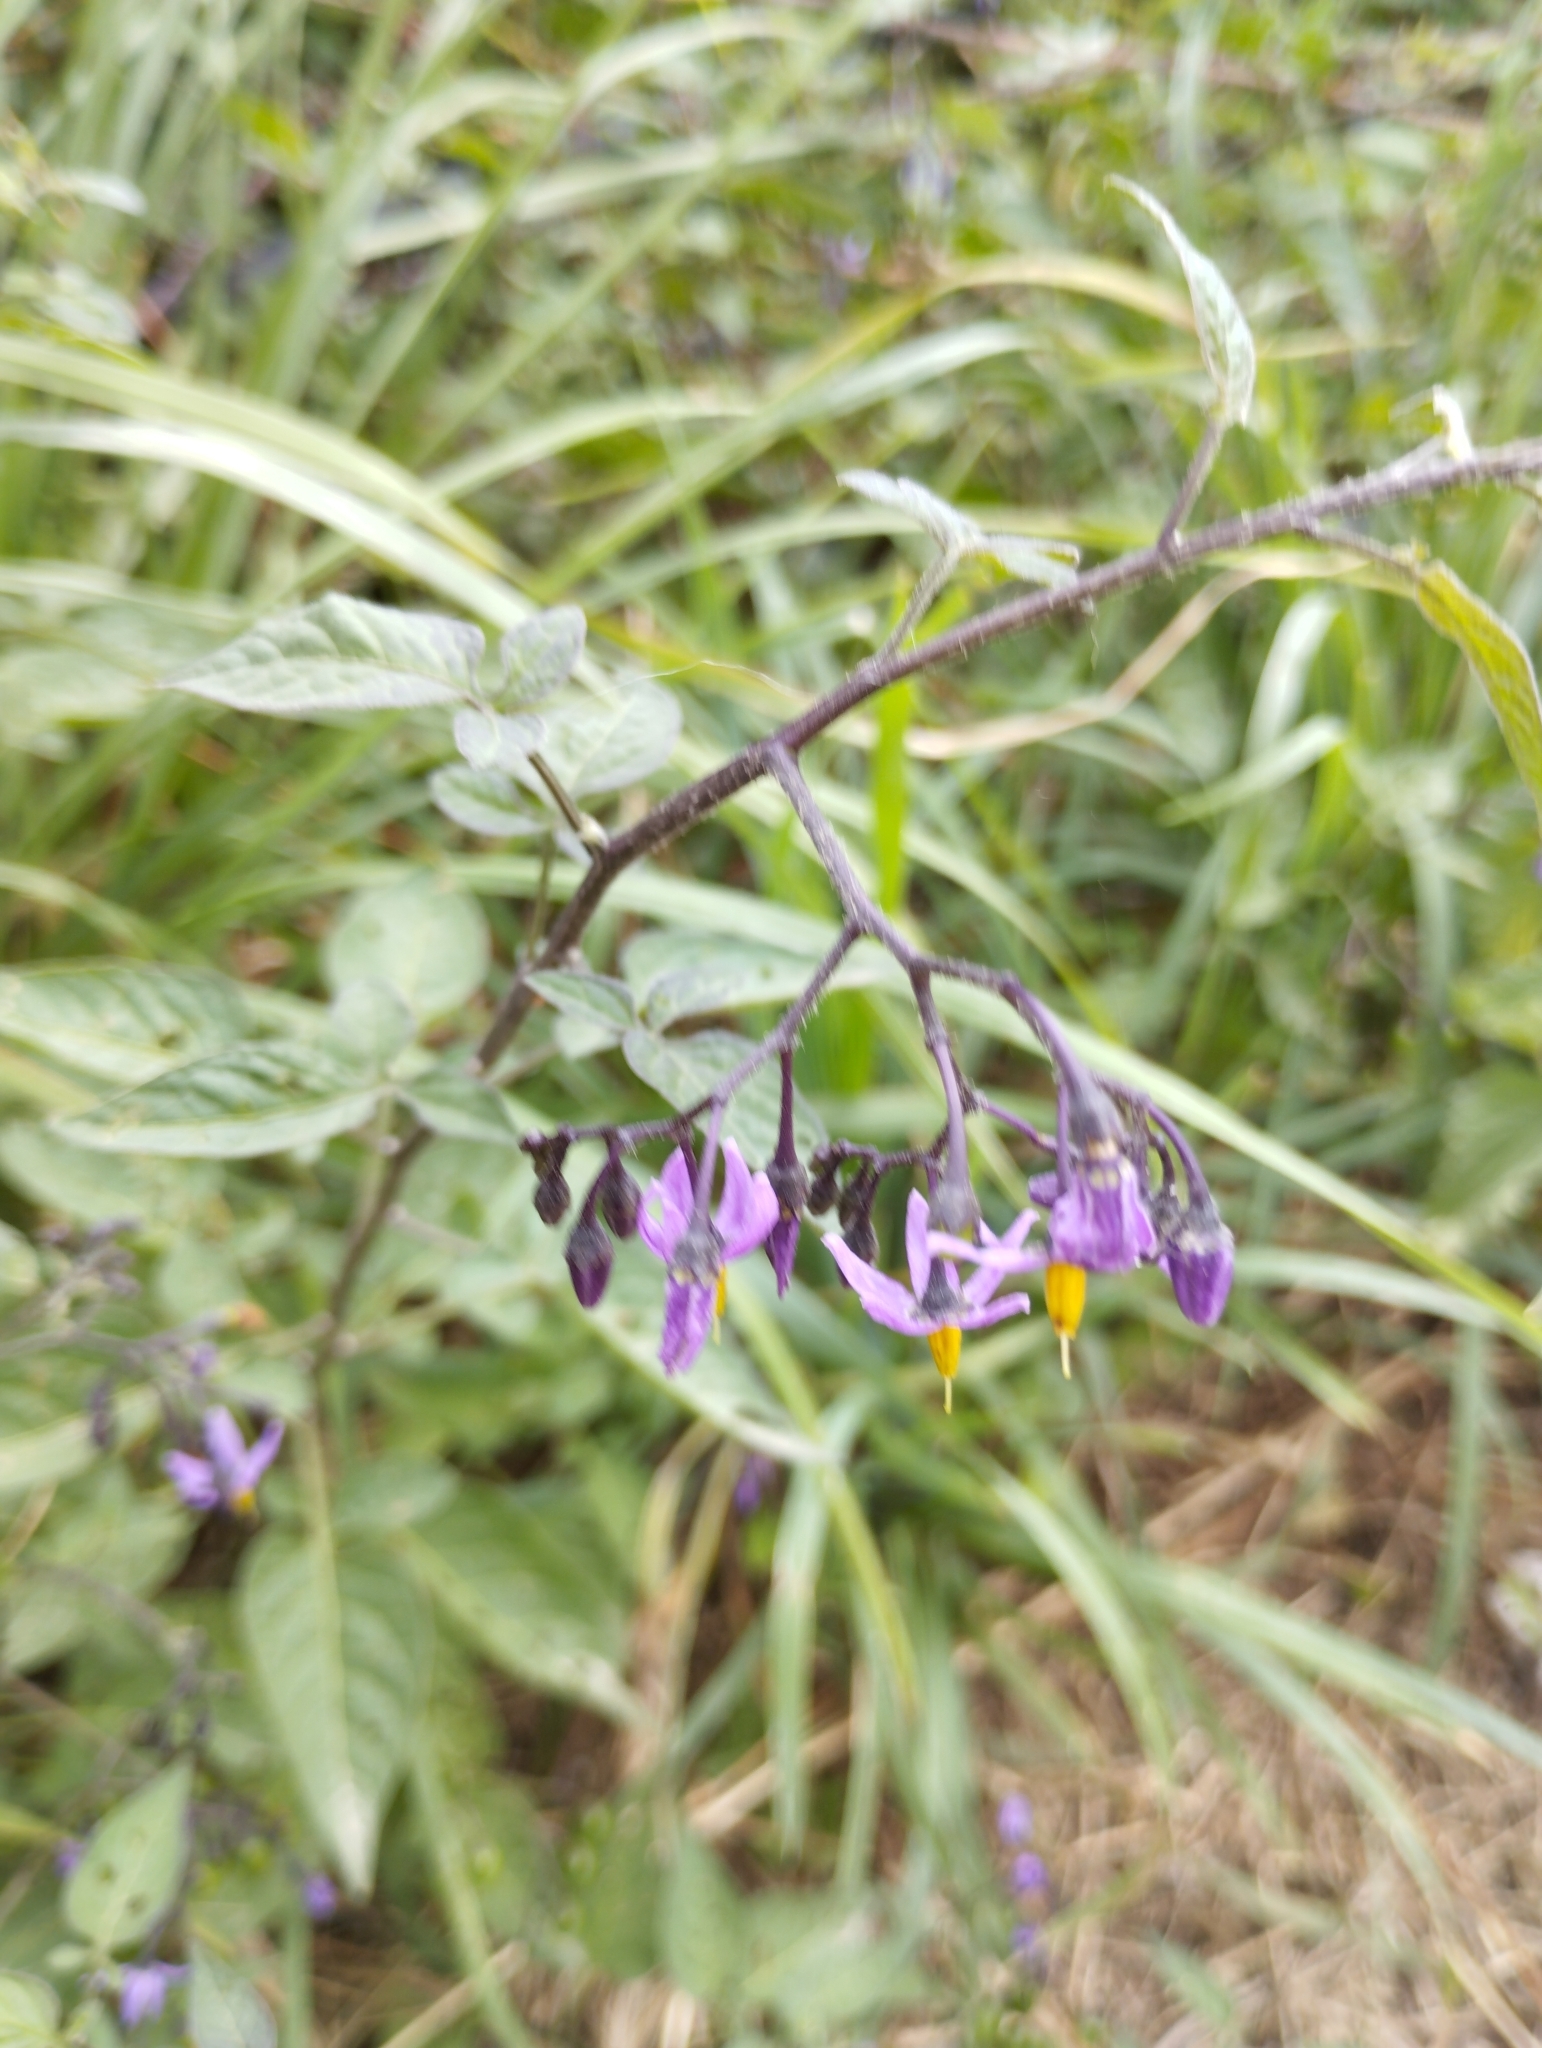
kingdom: Plantae
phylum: Tracheophyta
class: Magnoliopsida
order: Solanales
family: Solanaceae
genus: Solanum
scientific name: Solanum dulcamara
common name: Climbing nightshade
